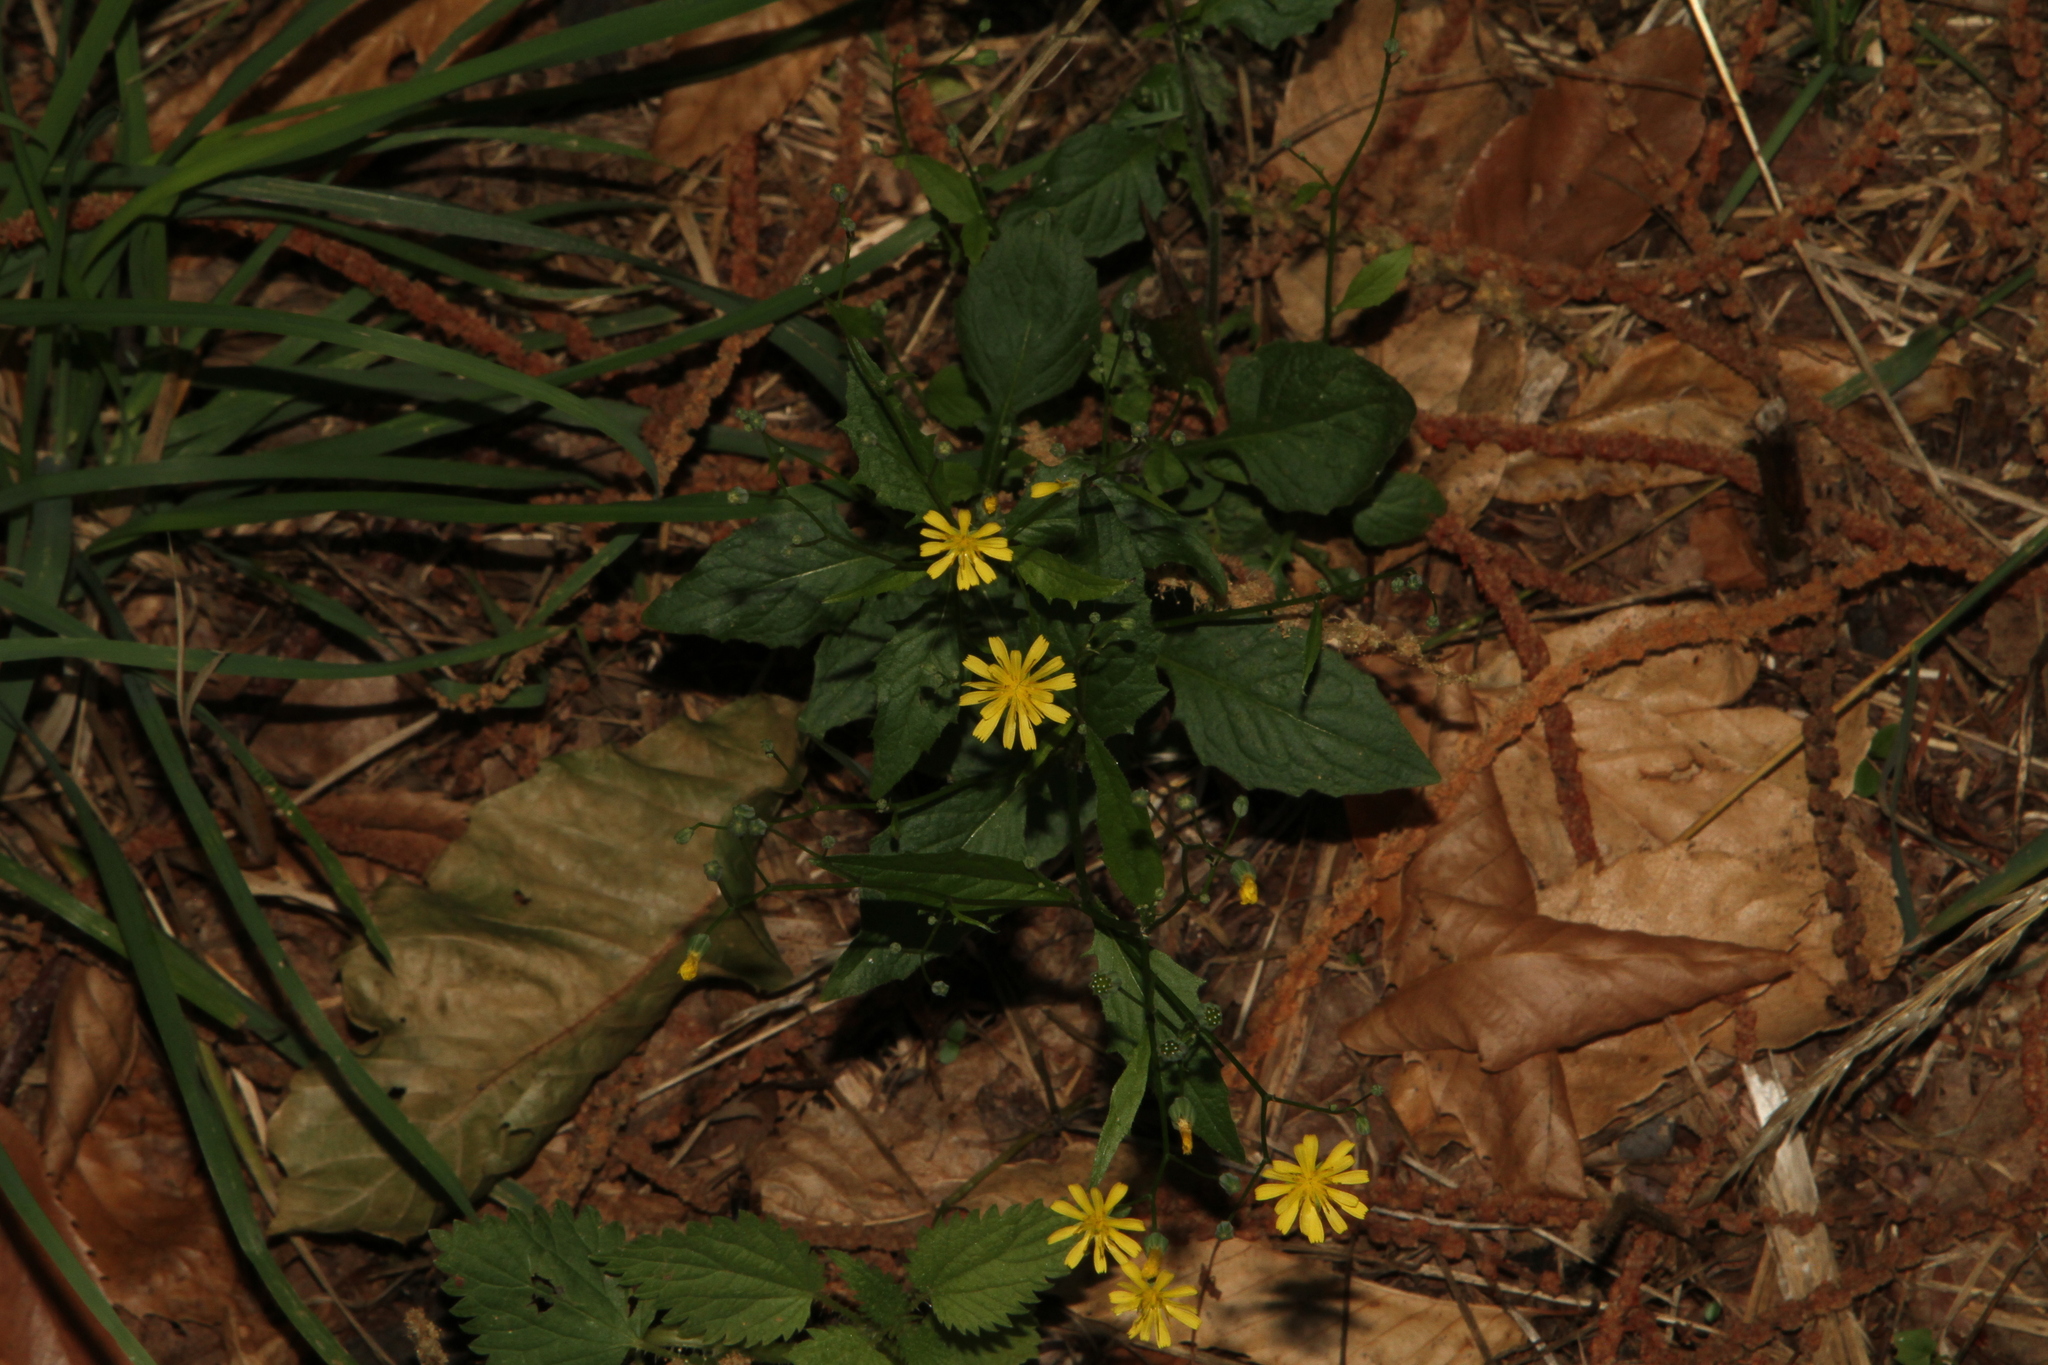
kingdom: Plantae
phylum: Tracheophyta
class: Magnoliopsida
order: Asterales
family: Asteraceae
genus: Lapsana
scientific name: Lapsana communis
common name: Nipplewort
